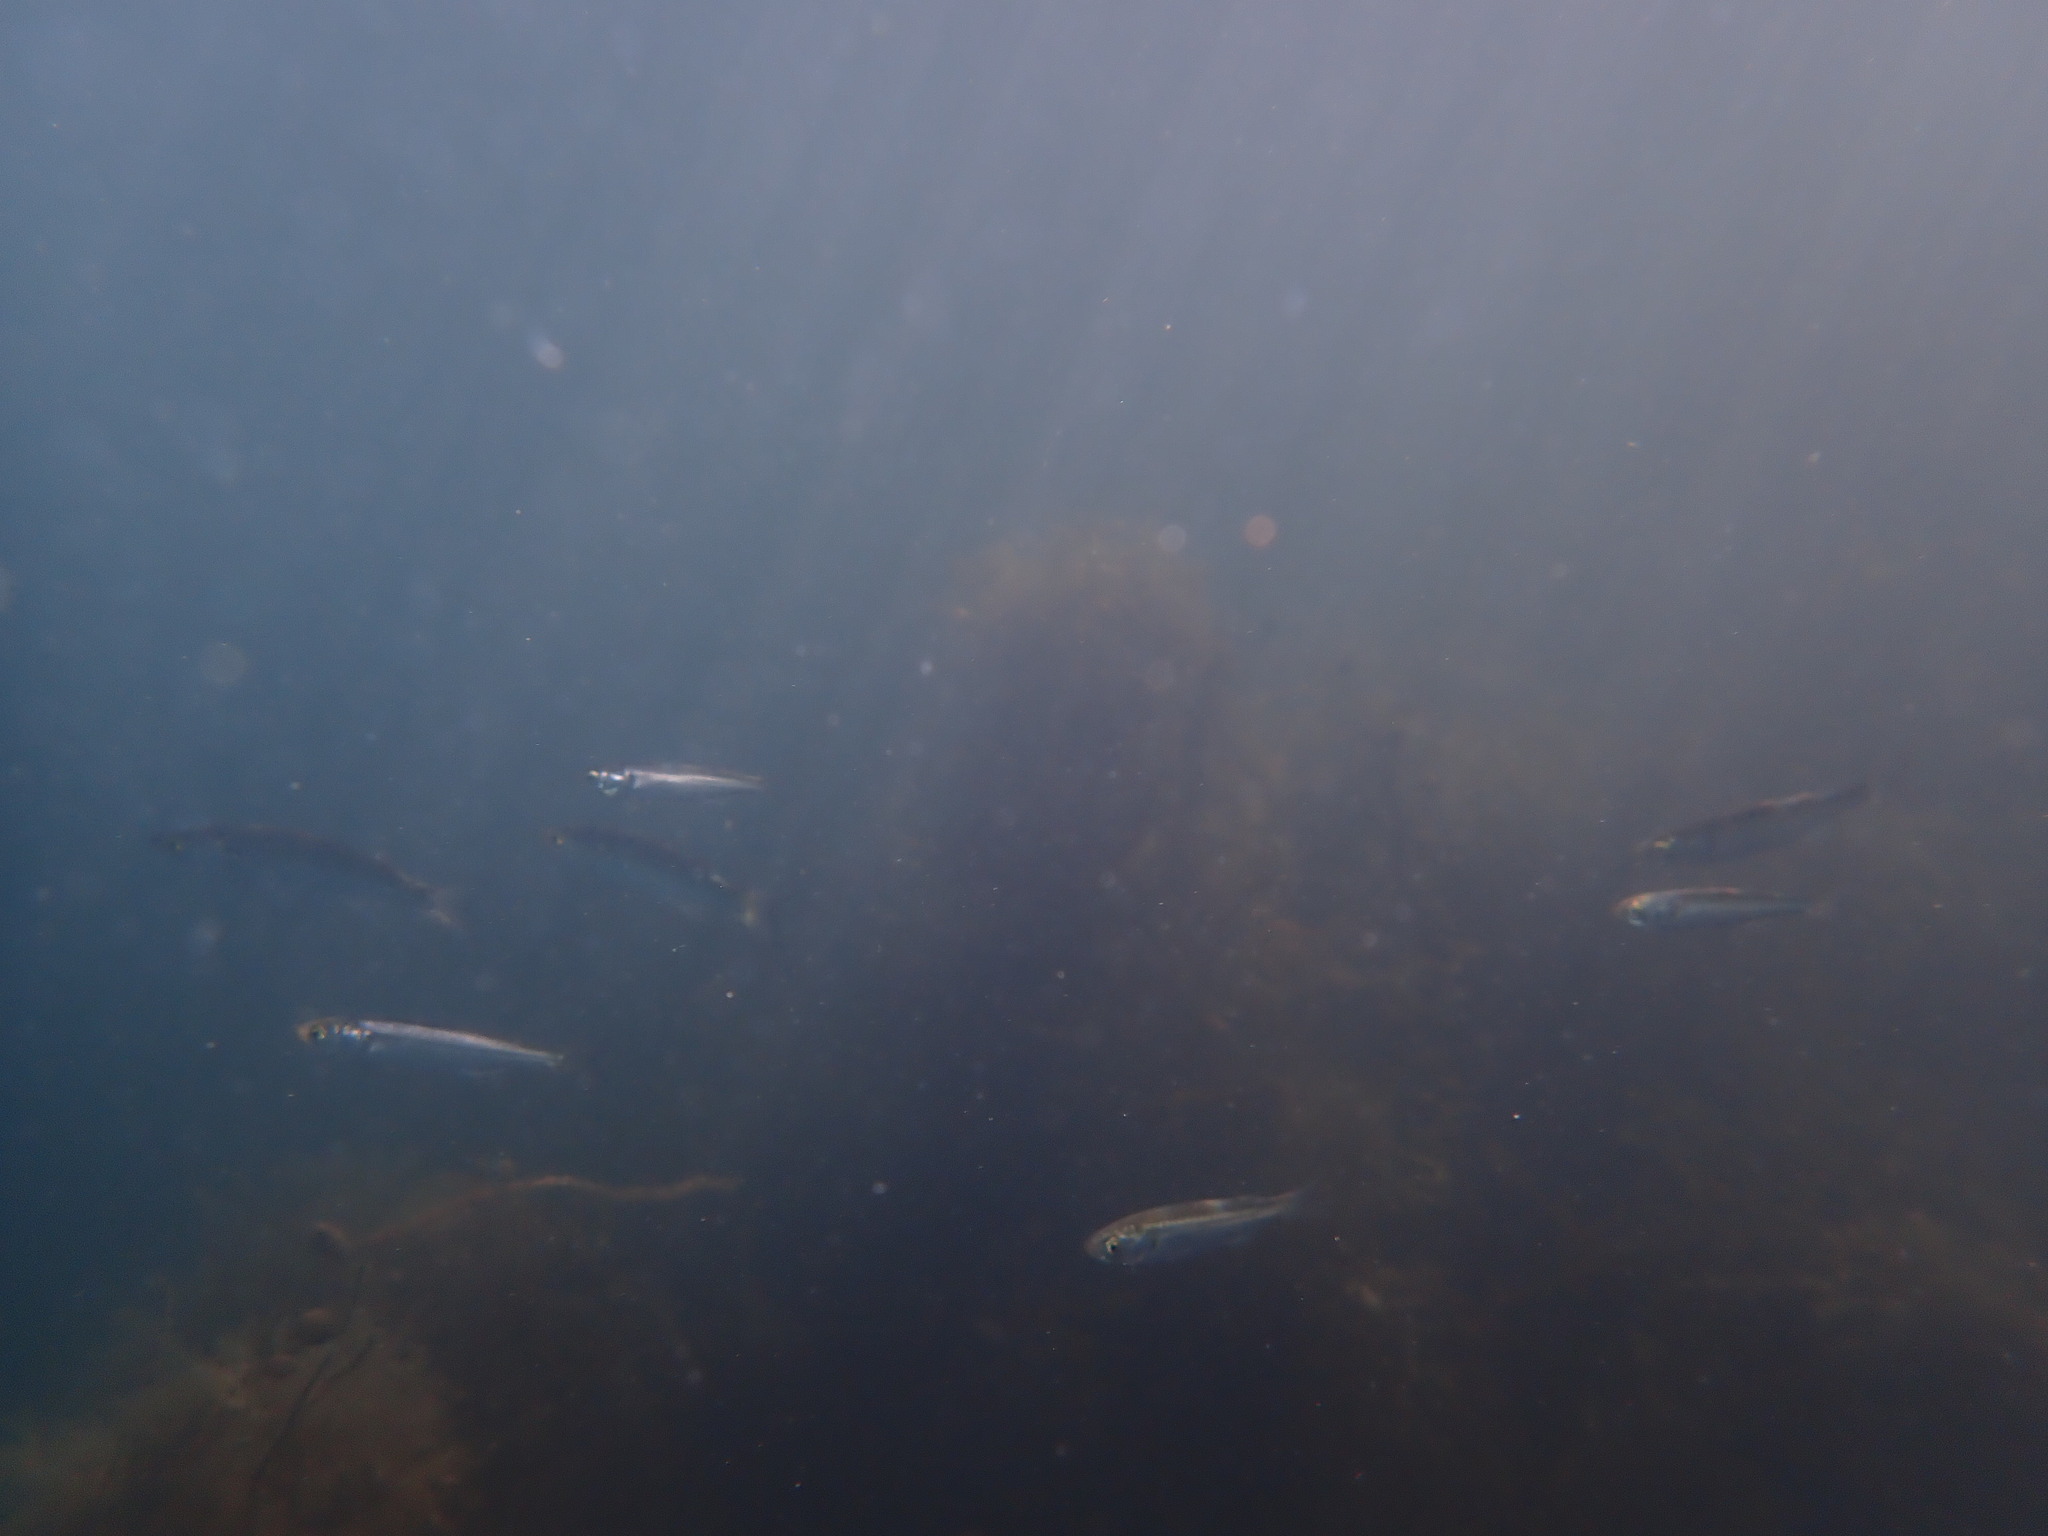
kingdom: Animalia
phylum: Chordata
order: Mugiliformes
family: Mugilidae
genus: Aldrichetta
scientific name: Aldrichetta forsteri
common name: Yellow-eye mullet
